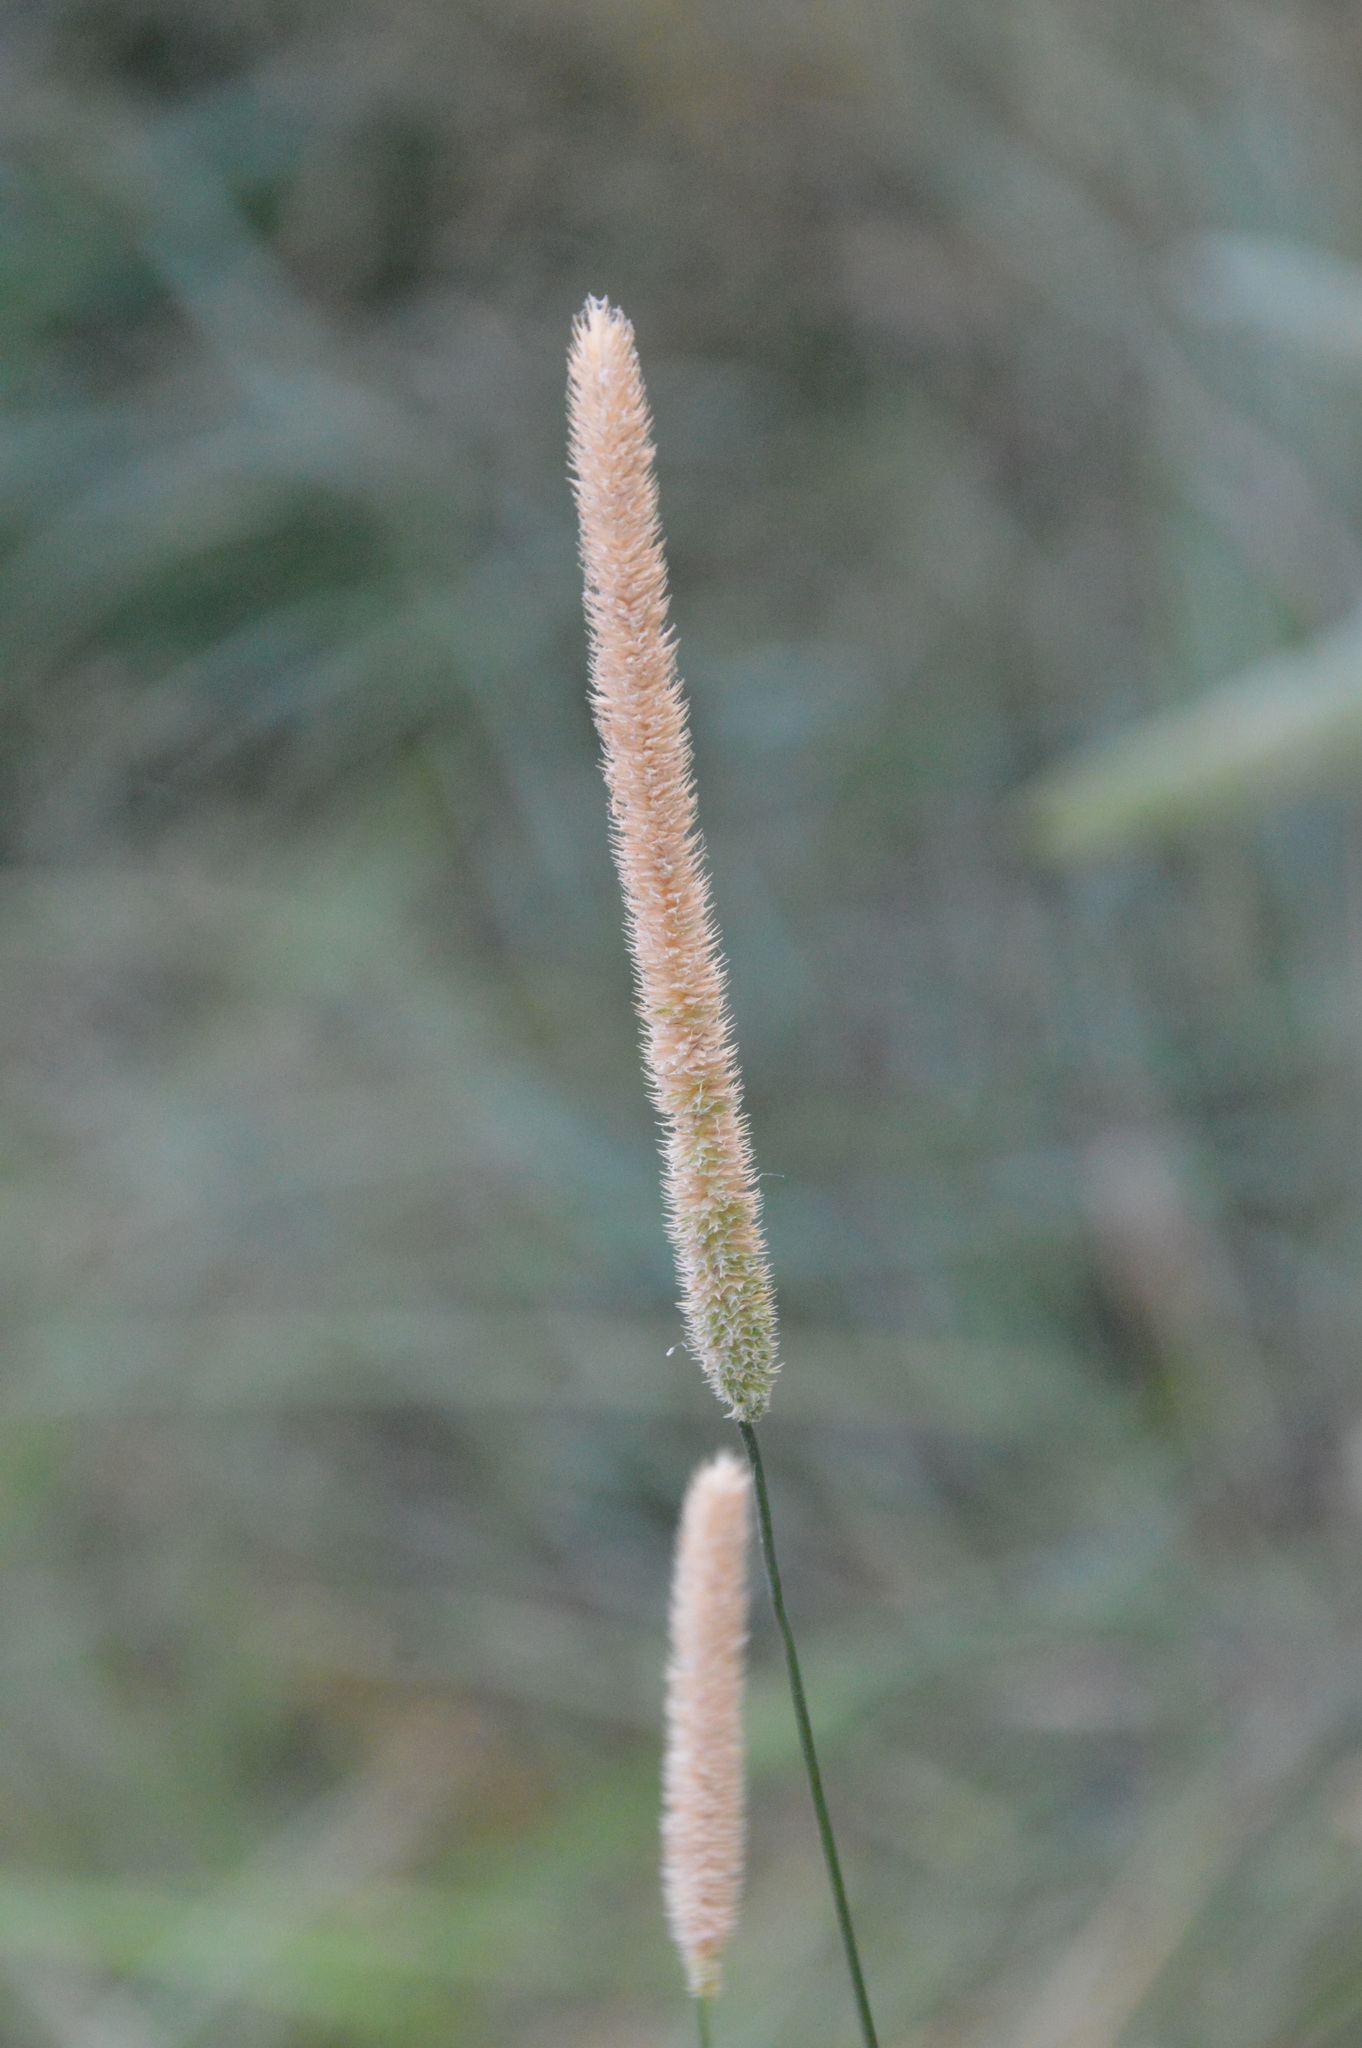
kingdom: Plantae
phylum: Tracheophyta
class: Liliopsida
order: Poales
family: Poaceae
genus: Phleum
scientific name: Phleum pratense
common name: Timothy grass
